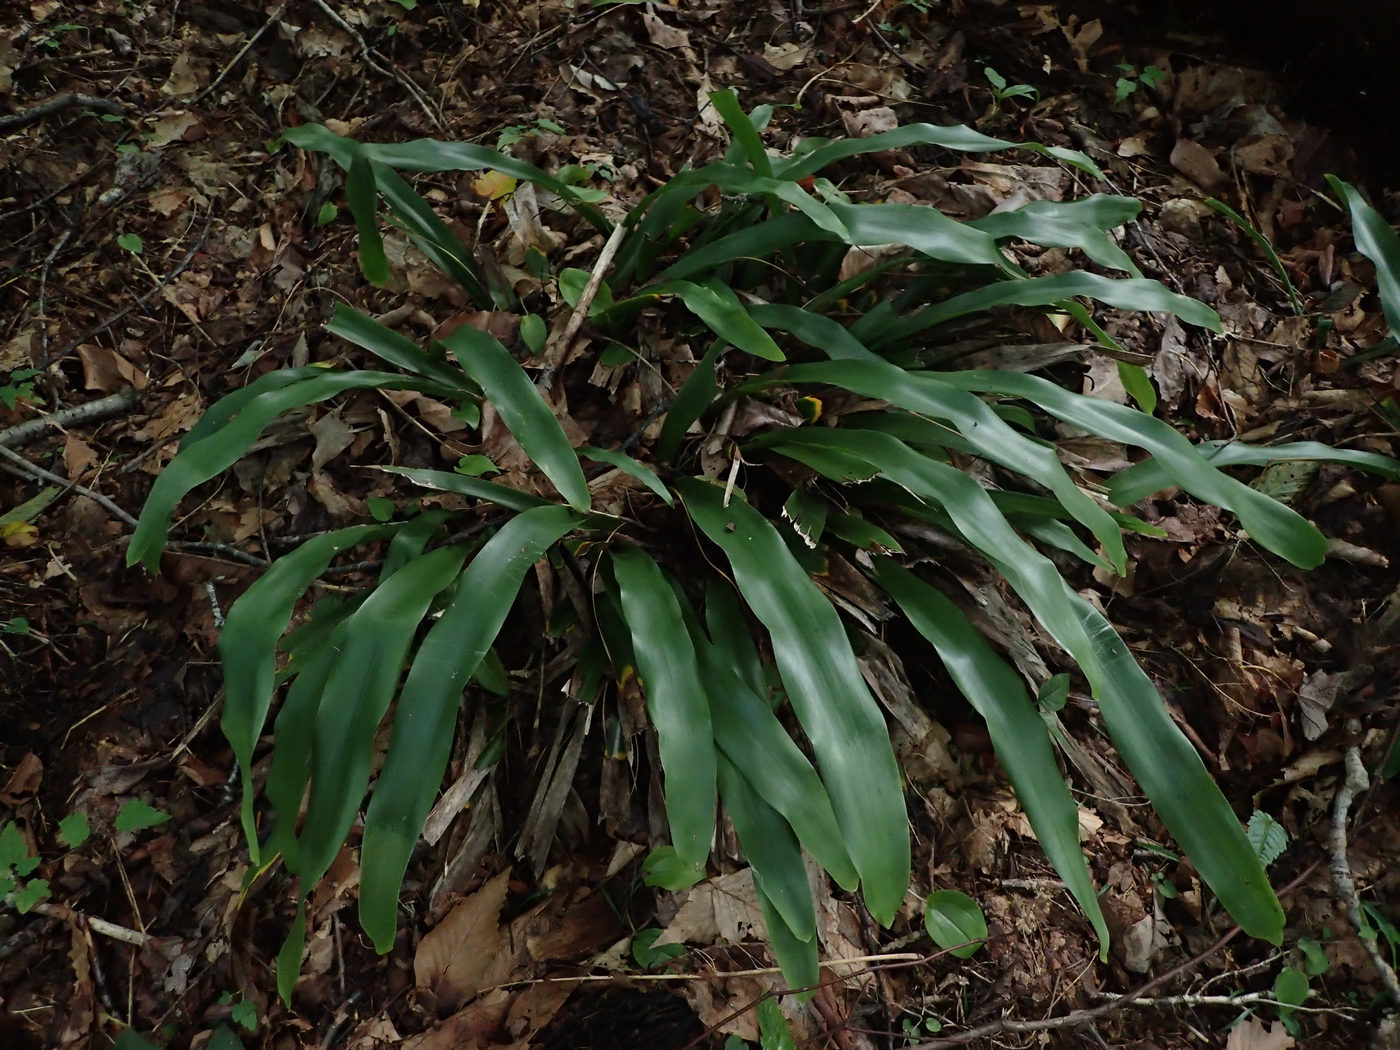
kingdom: Plantae
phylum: Tracheophyta
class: Liliopsida
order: Poales
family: Cyperaceae
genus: Carex
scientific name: Carex fraseriana
